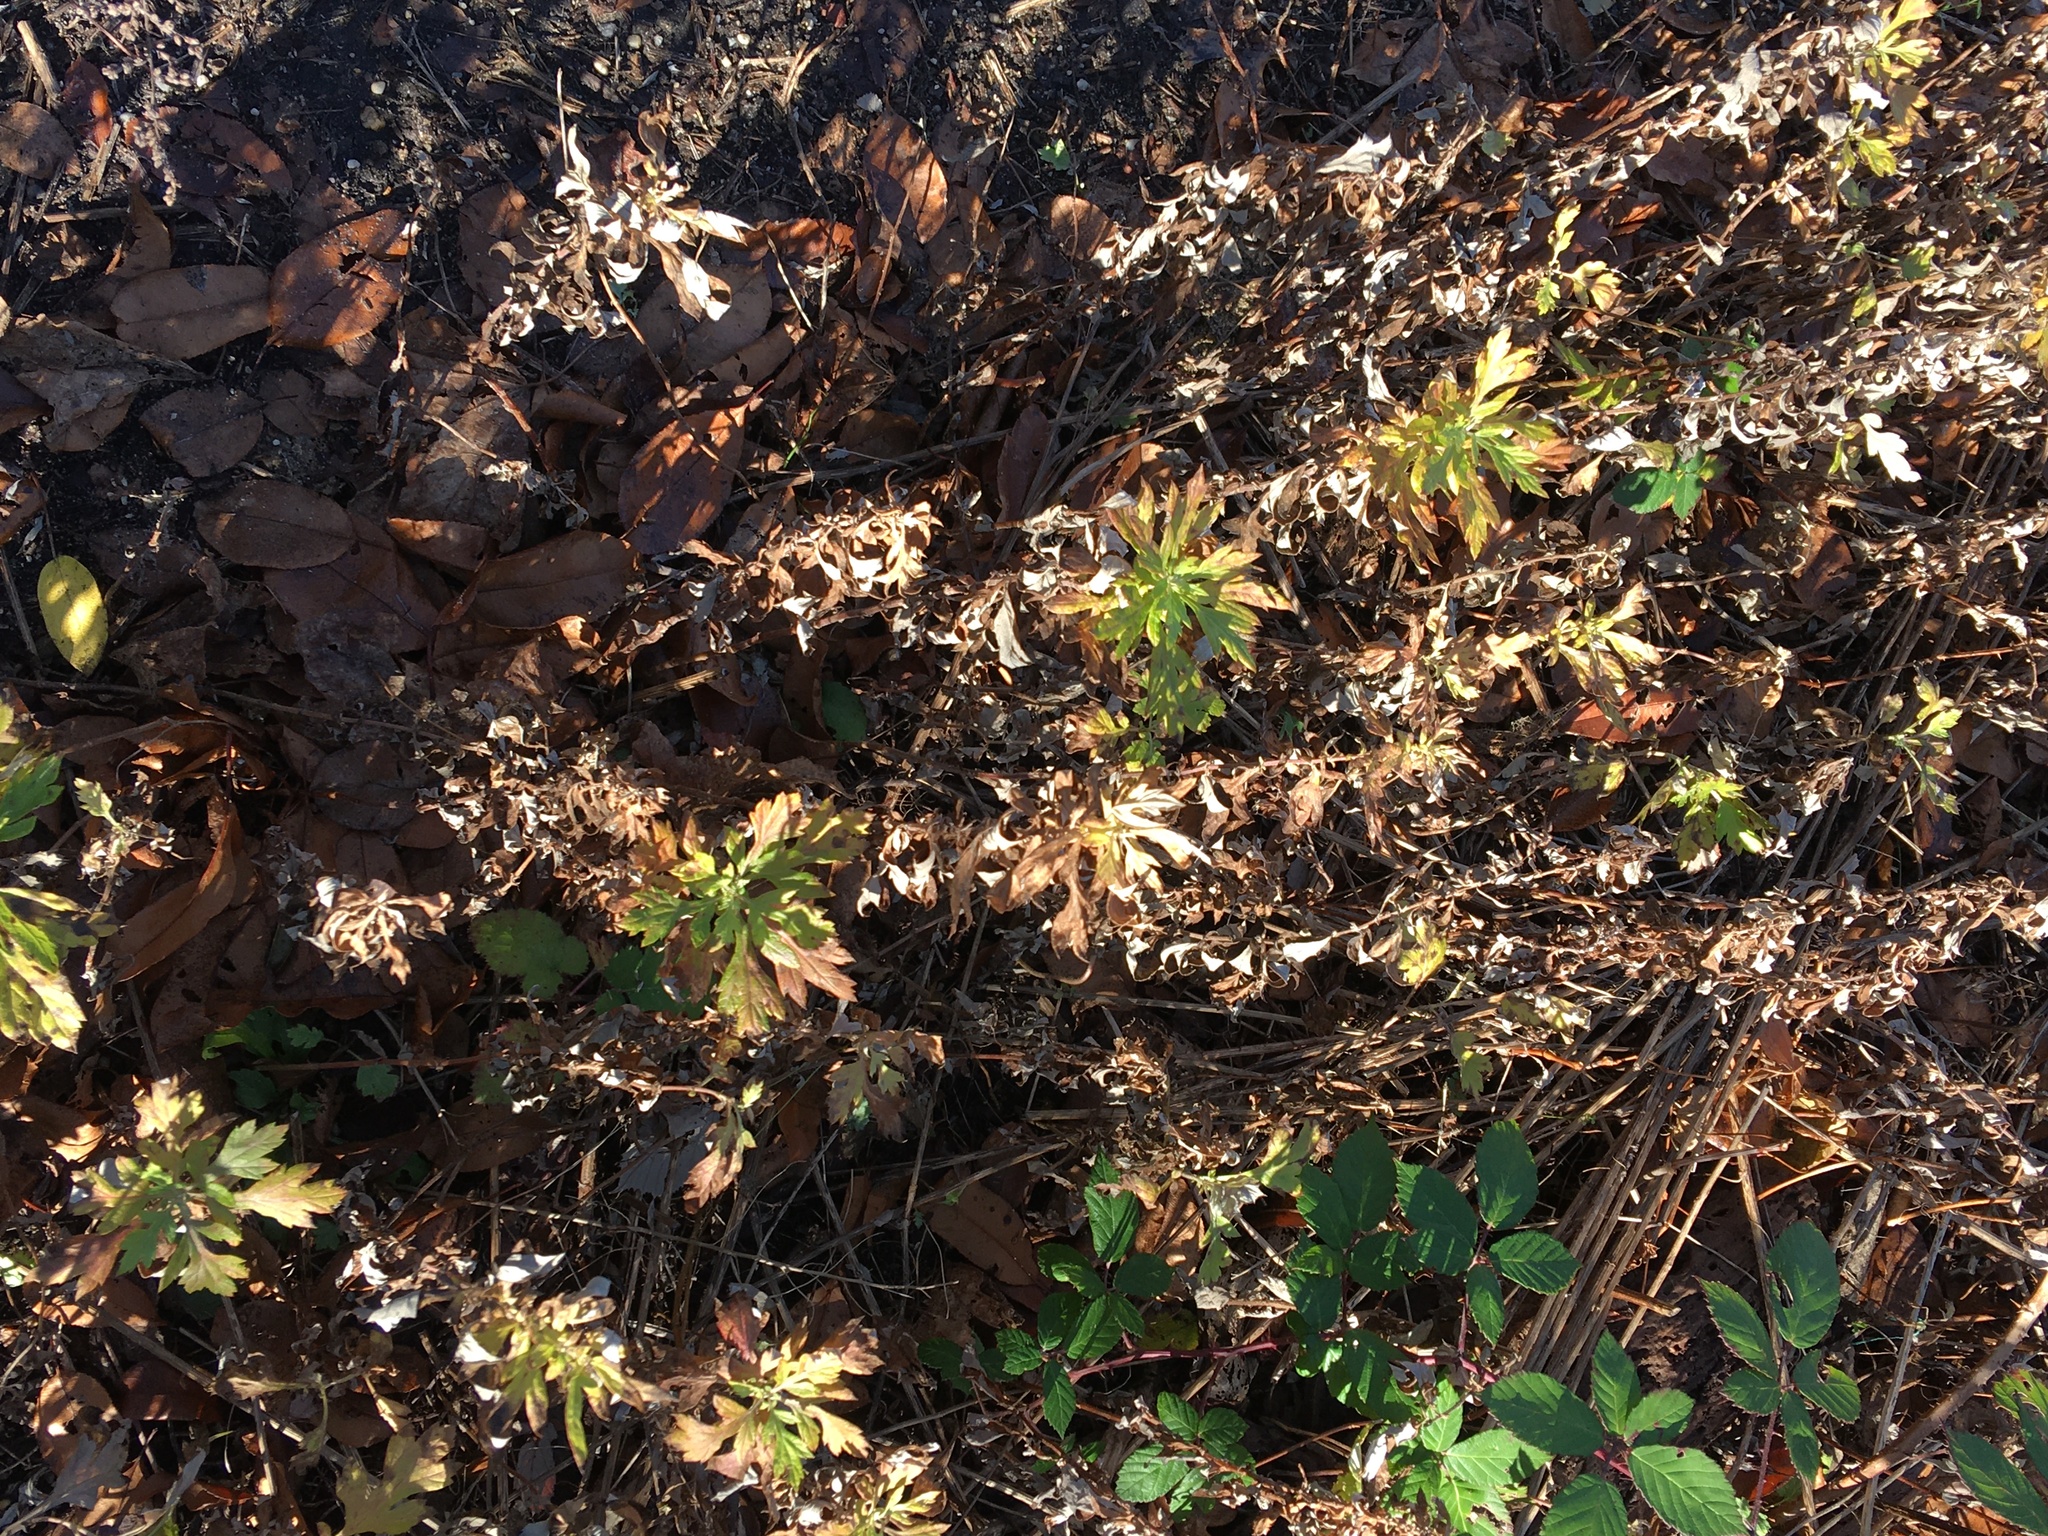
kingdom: Plantae
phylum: Tracheophyta
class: Magnoliopsida
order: Asterales
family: Asteraceae
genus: Artemisia
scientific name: Artemisia vulgaris
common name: Mugwort
